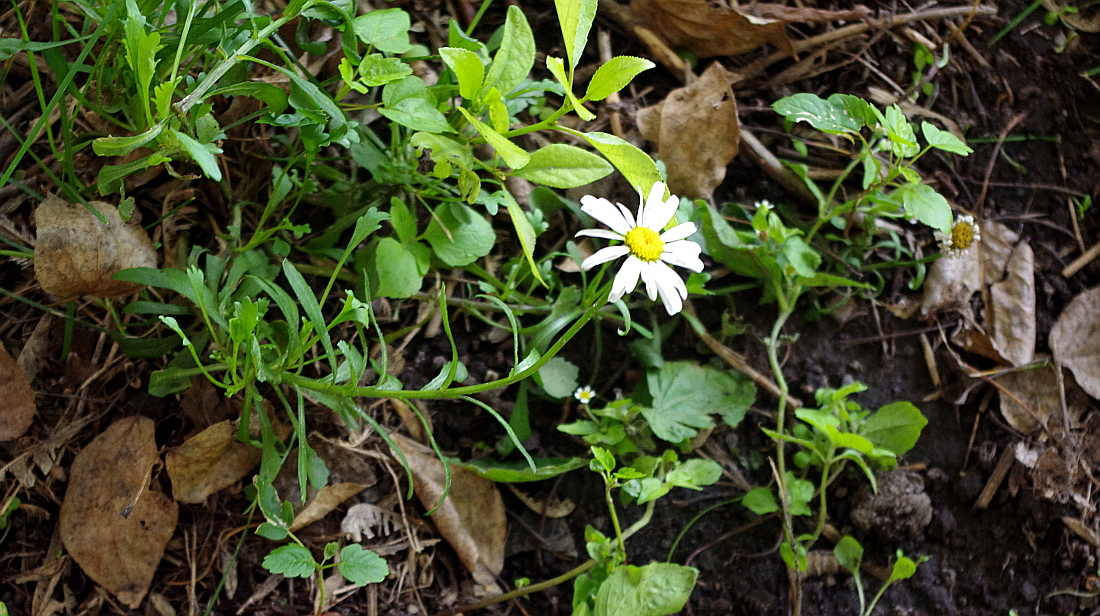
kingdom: Plantae
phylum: Tracheophyta
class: Magnoliopsida
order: Asterales
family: Asteraceae
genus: Leucanthemum
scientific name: Leucanthemum vulgare
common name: Oxeye daisy
